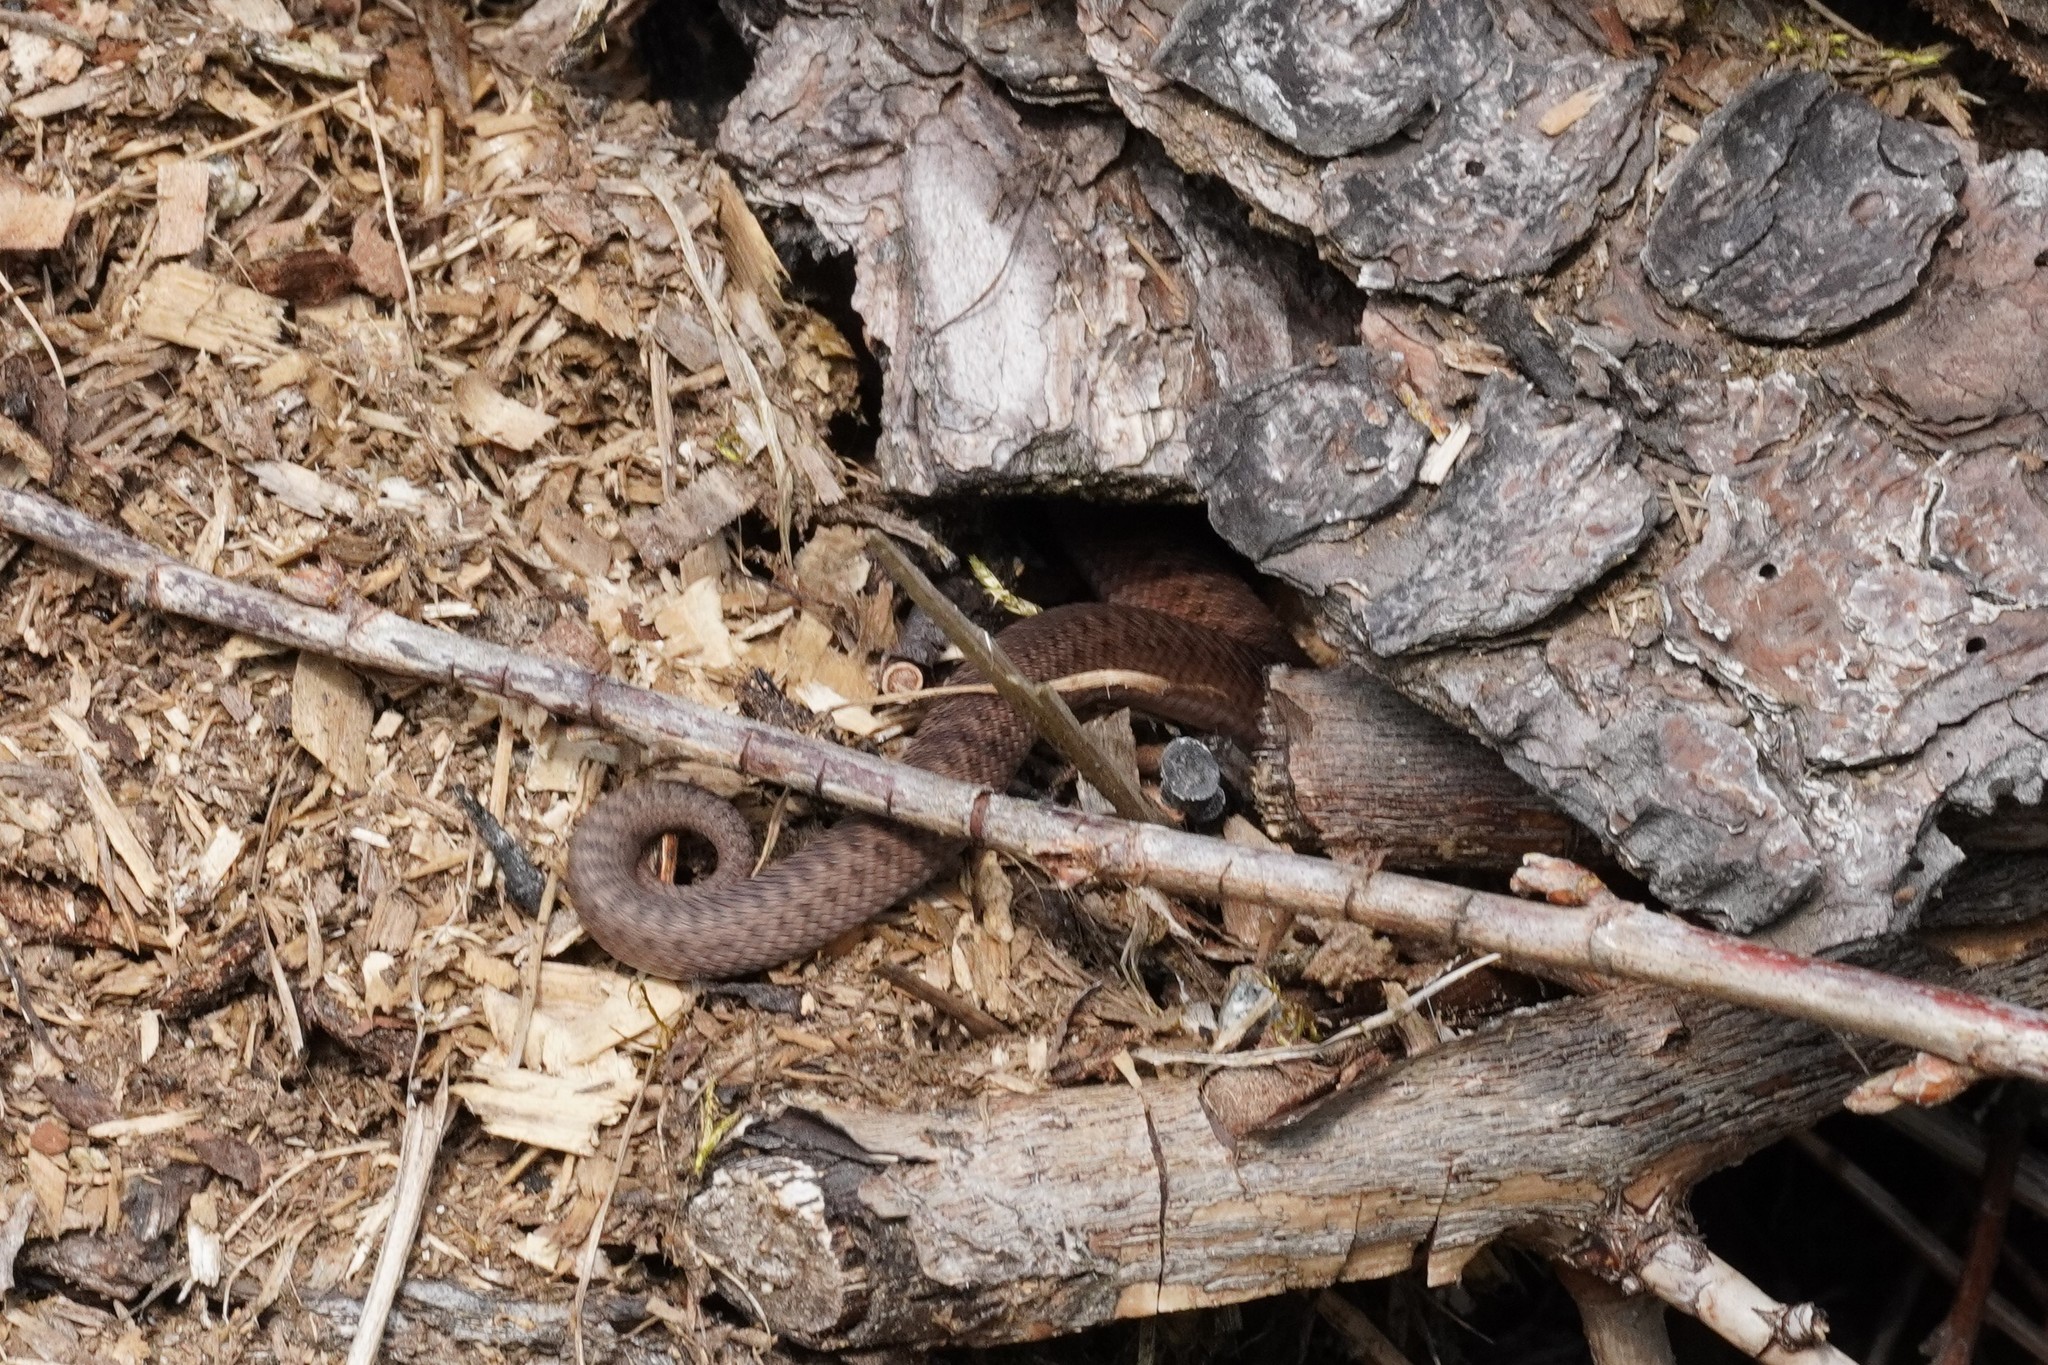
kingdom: Animalia
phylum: Chordata
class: Squamata
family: Viperidae
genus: Vipera
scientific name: Vipera berus
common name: Adder
